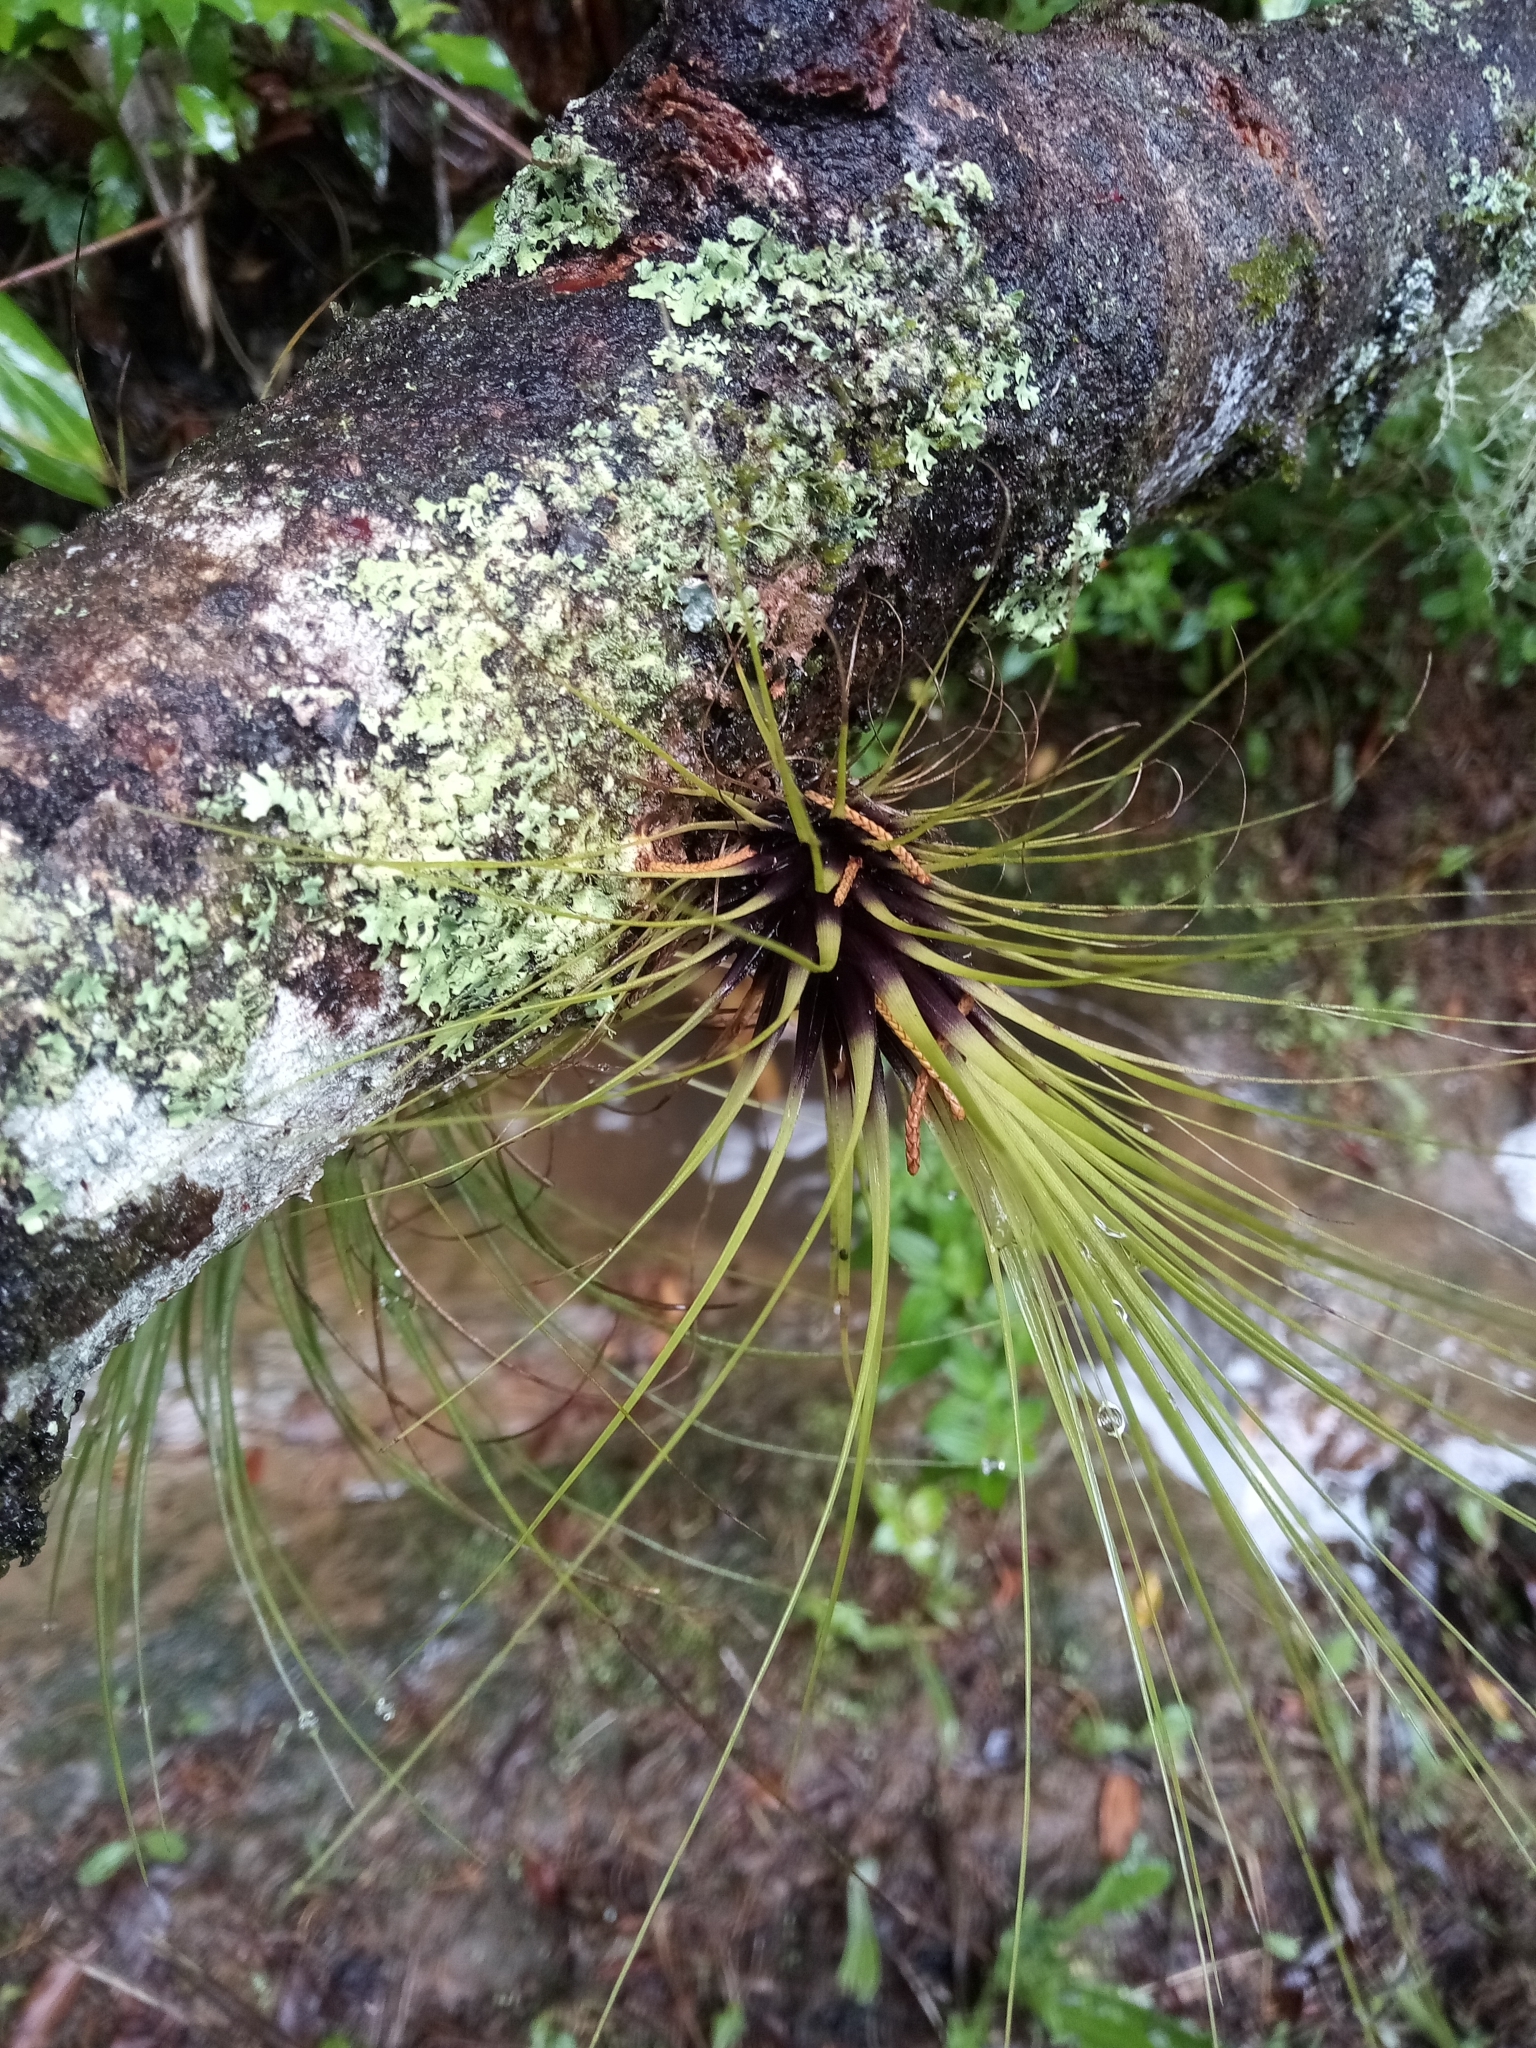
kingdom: Plantae
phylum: Tracheophyta
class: Liliopsida
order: Poales
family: Bromeliaceae
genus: Tillandsia
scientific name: Tillandsia punctulata
